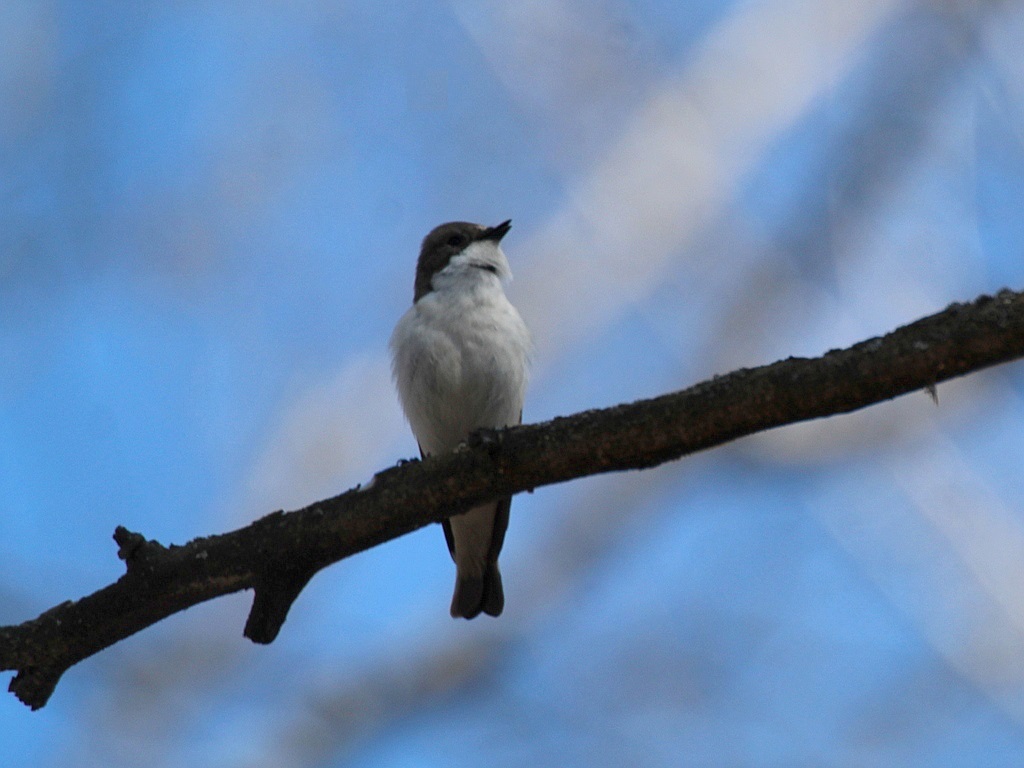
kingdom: Animalia
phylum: Chordata
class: Aves
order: Passeriformes
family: Muscicapidae
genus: Ficedula
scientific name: Ficedula hypoleuca
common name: European pied flycatcher
